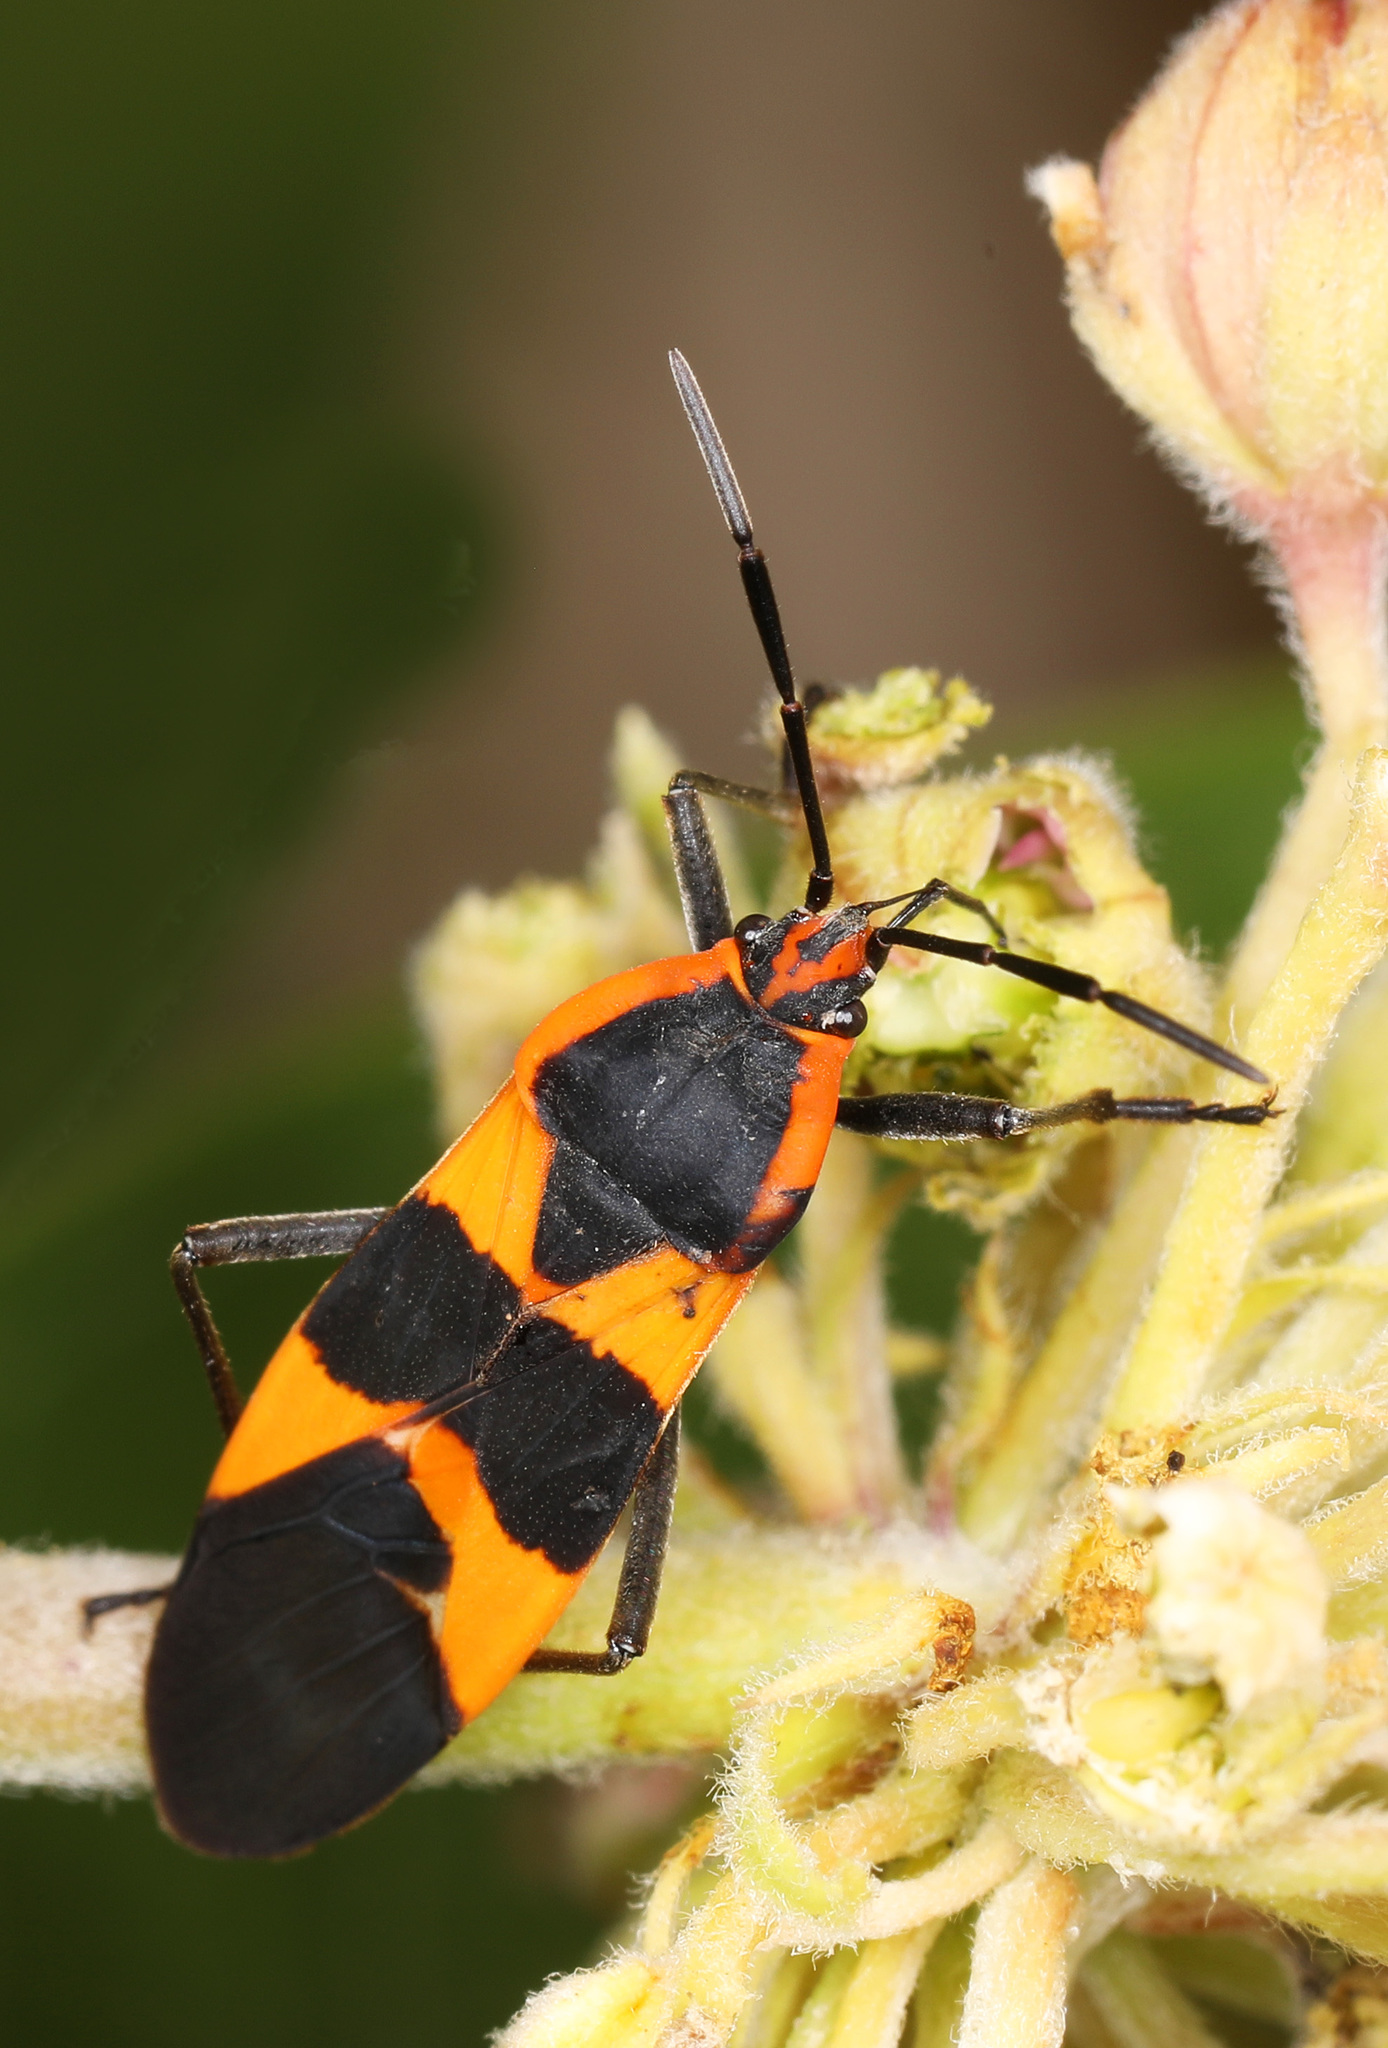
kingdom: Animalia
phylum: Arthropoda
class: Insecta
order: Hemiptera
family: Lygaeidae
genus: Oncopeltus
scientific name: Oncopeltus fasciatus
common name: Large milkweed bug
